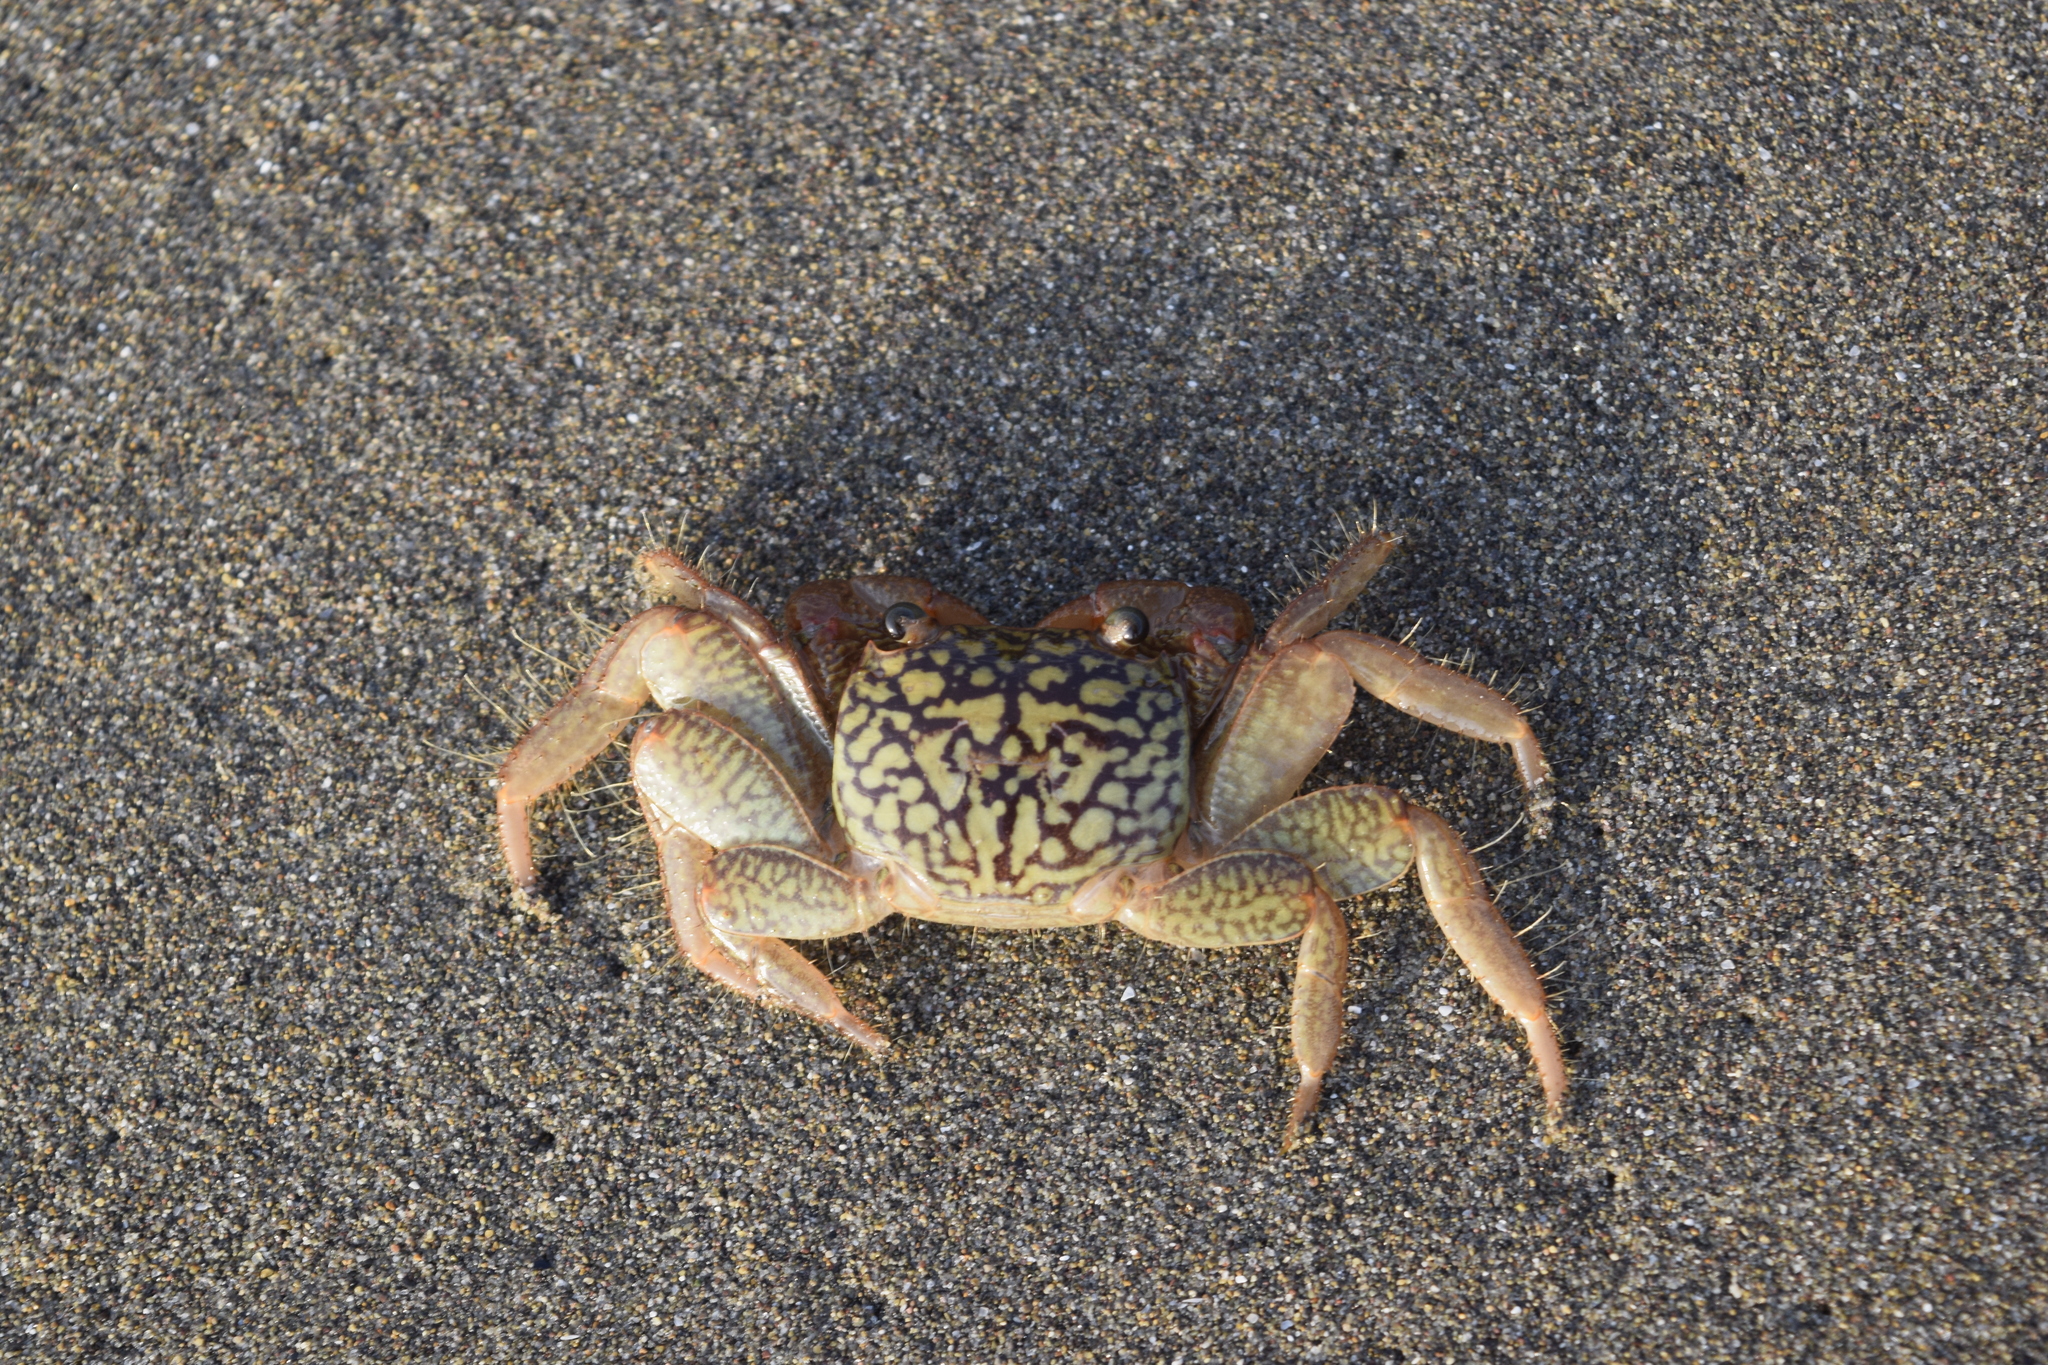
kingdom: Animalia
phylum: Arthropoda
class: Malacostraca
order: Decapoda
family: Grapsidae
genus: Geograpsus
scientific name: Geograpsus lividus
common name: Variegate shore crab
